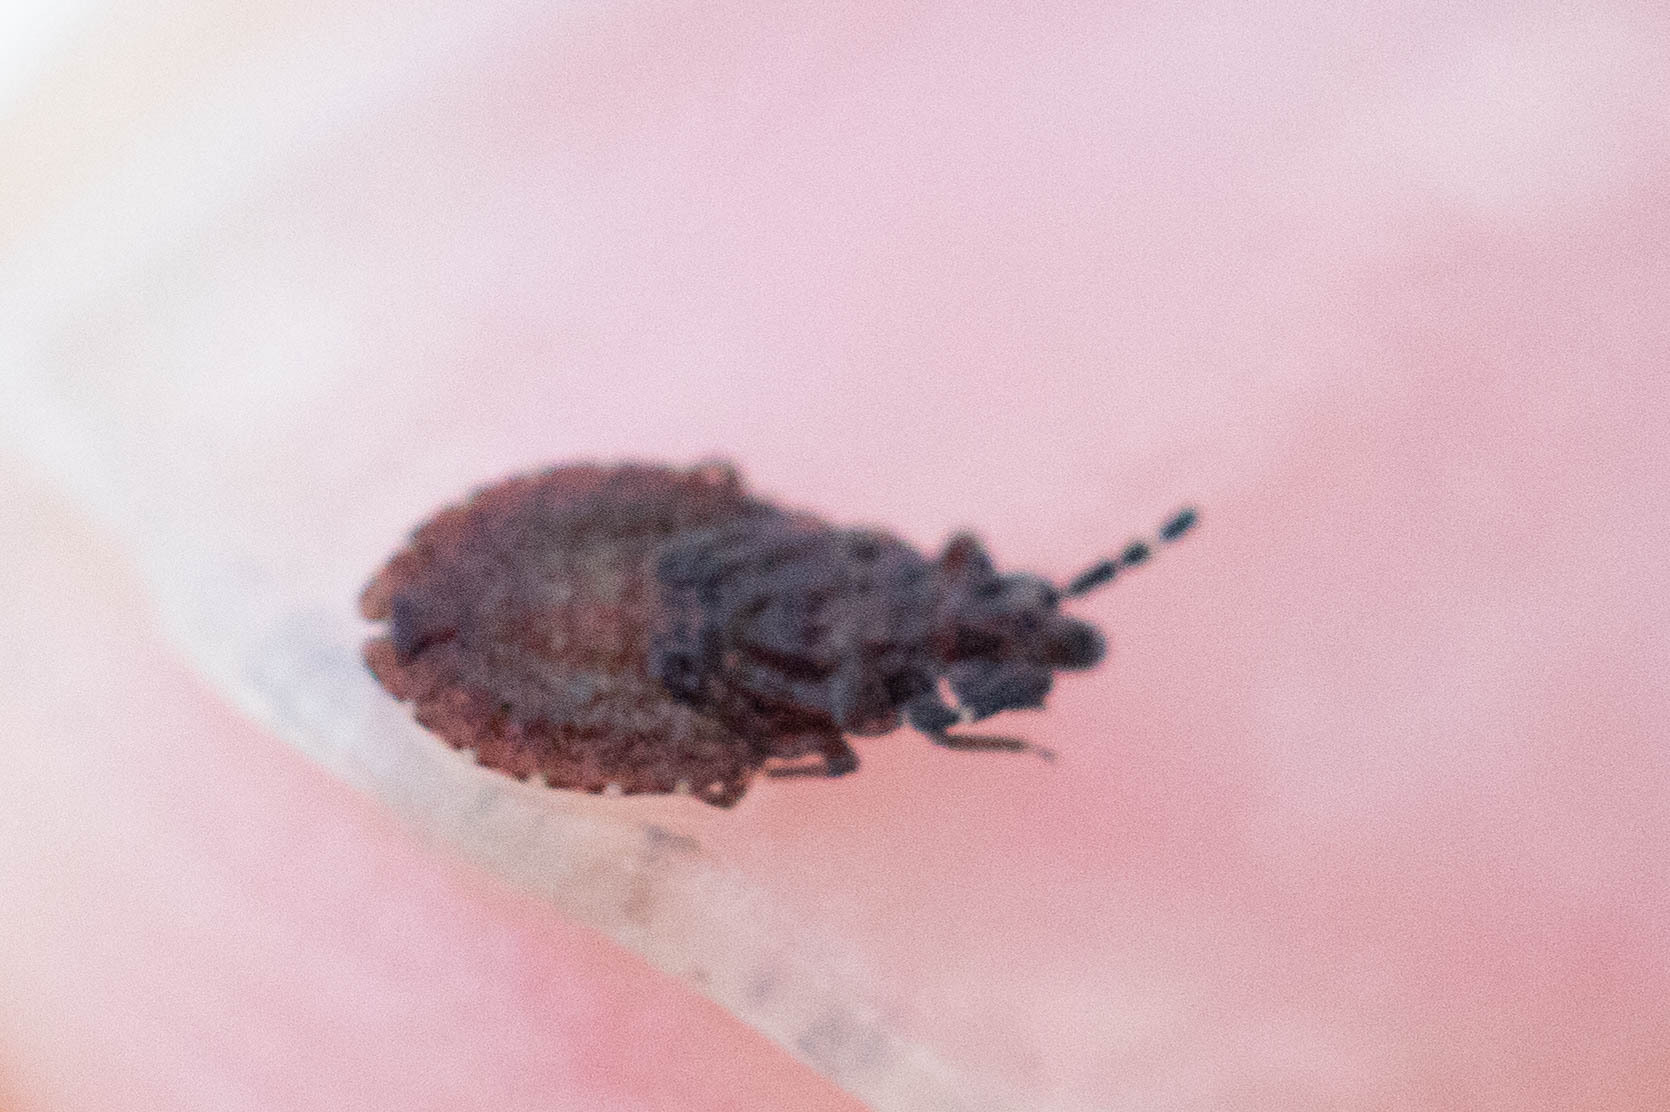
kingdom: Animalia
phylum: Arthropoda
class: Insecta
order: Hemiptera
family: Aradidae
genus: Aradus
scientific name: Aradus antennalis
